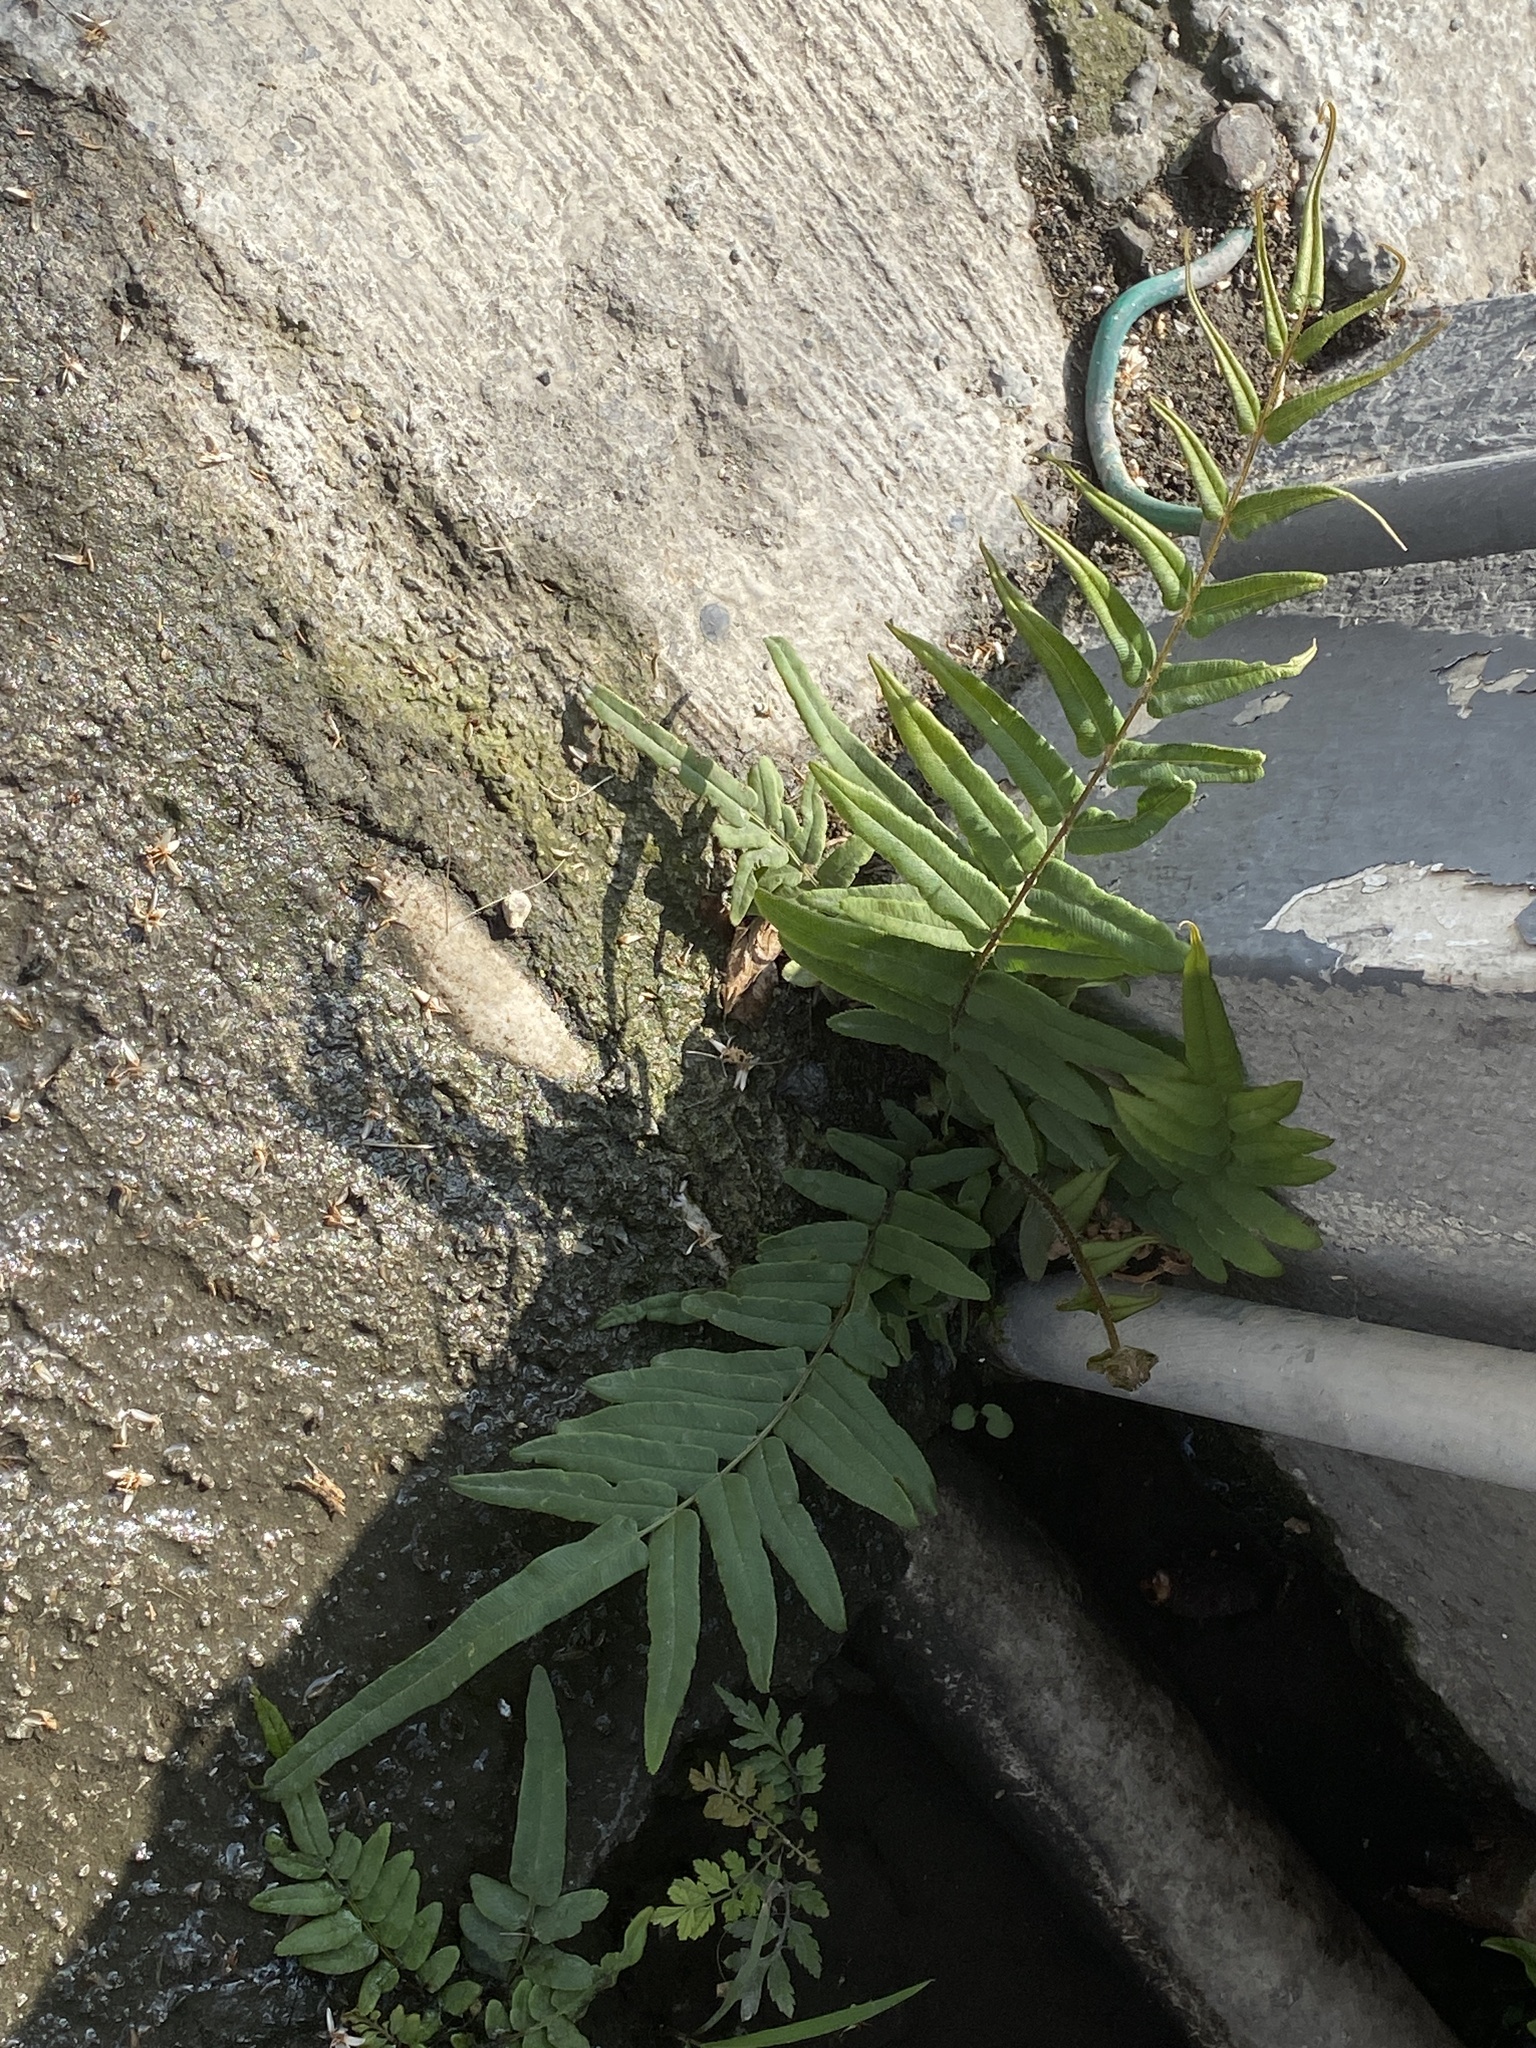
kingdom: Plantae
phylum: Tracheophyta
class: Polypodiopsida
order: Polypodiales
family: Pteridaceae
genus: Pteris
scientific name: Pteris vittata
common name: Ladder brake
